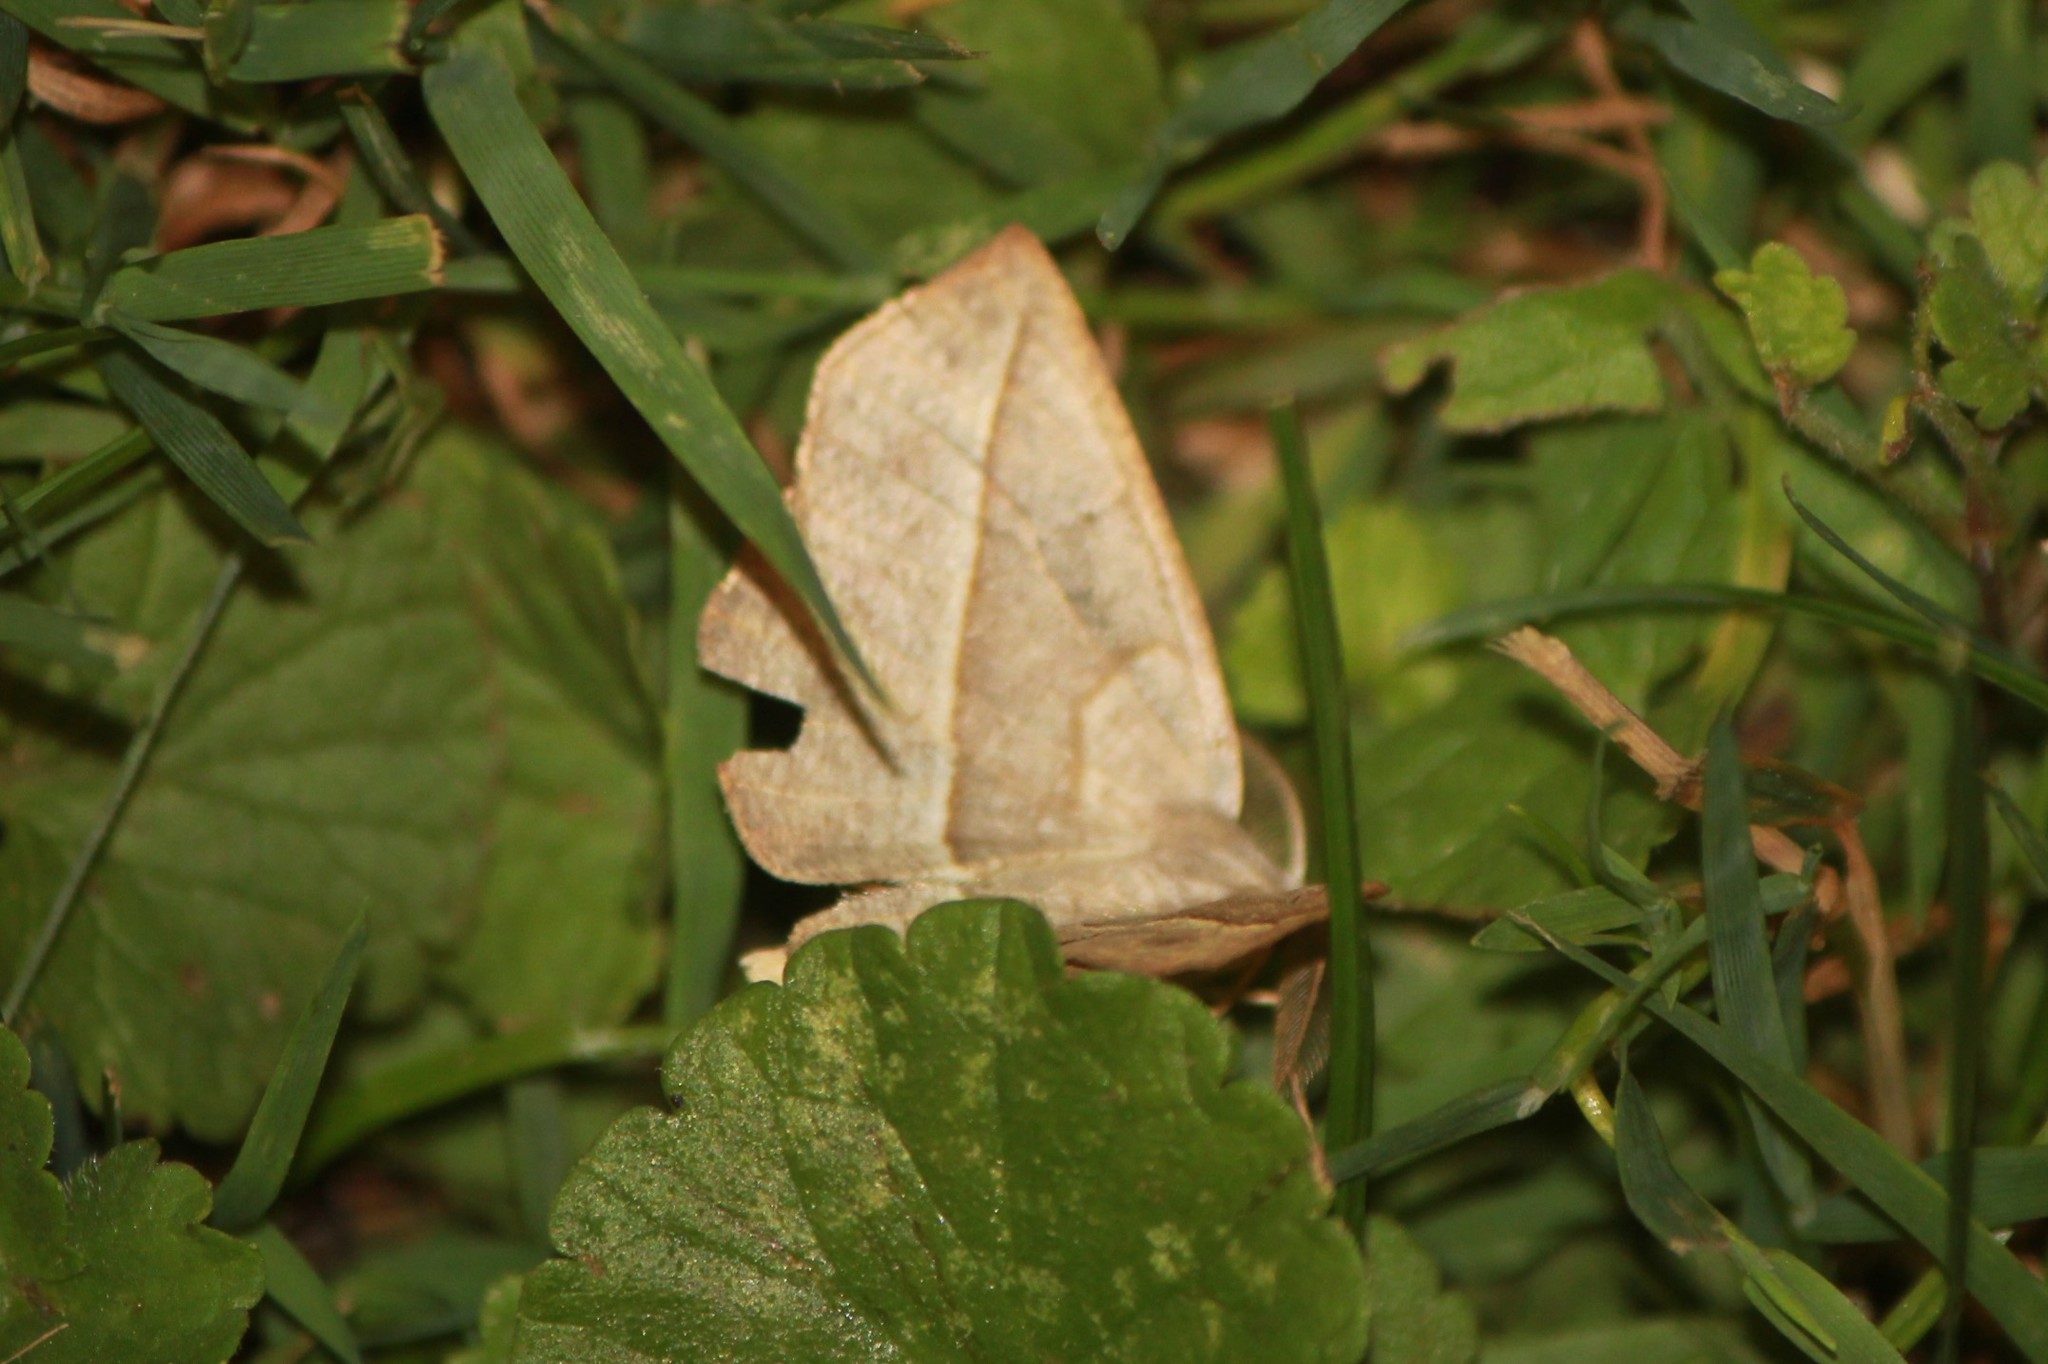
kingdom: Animalia
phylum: Arthropoda
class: Insecta
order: Lepidoptera
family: Geometridae
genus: Eusarca
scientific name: Eusarca confusaria
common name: Confused eusarca
